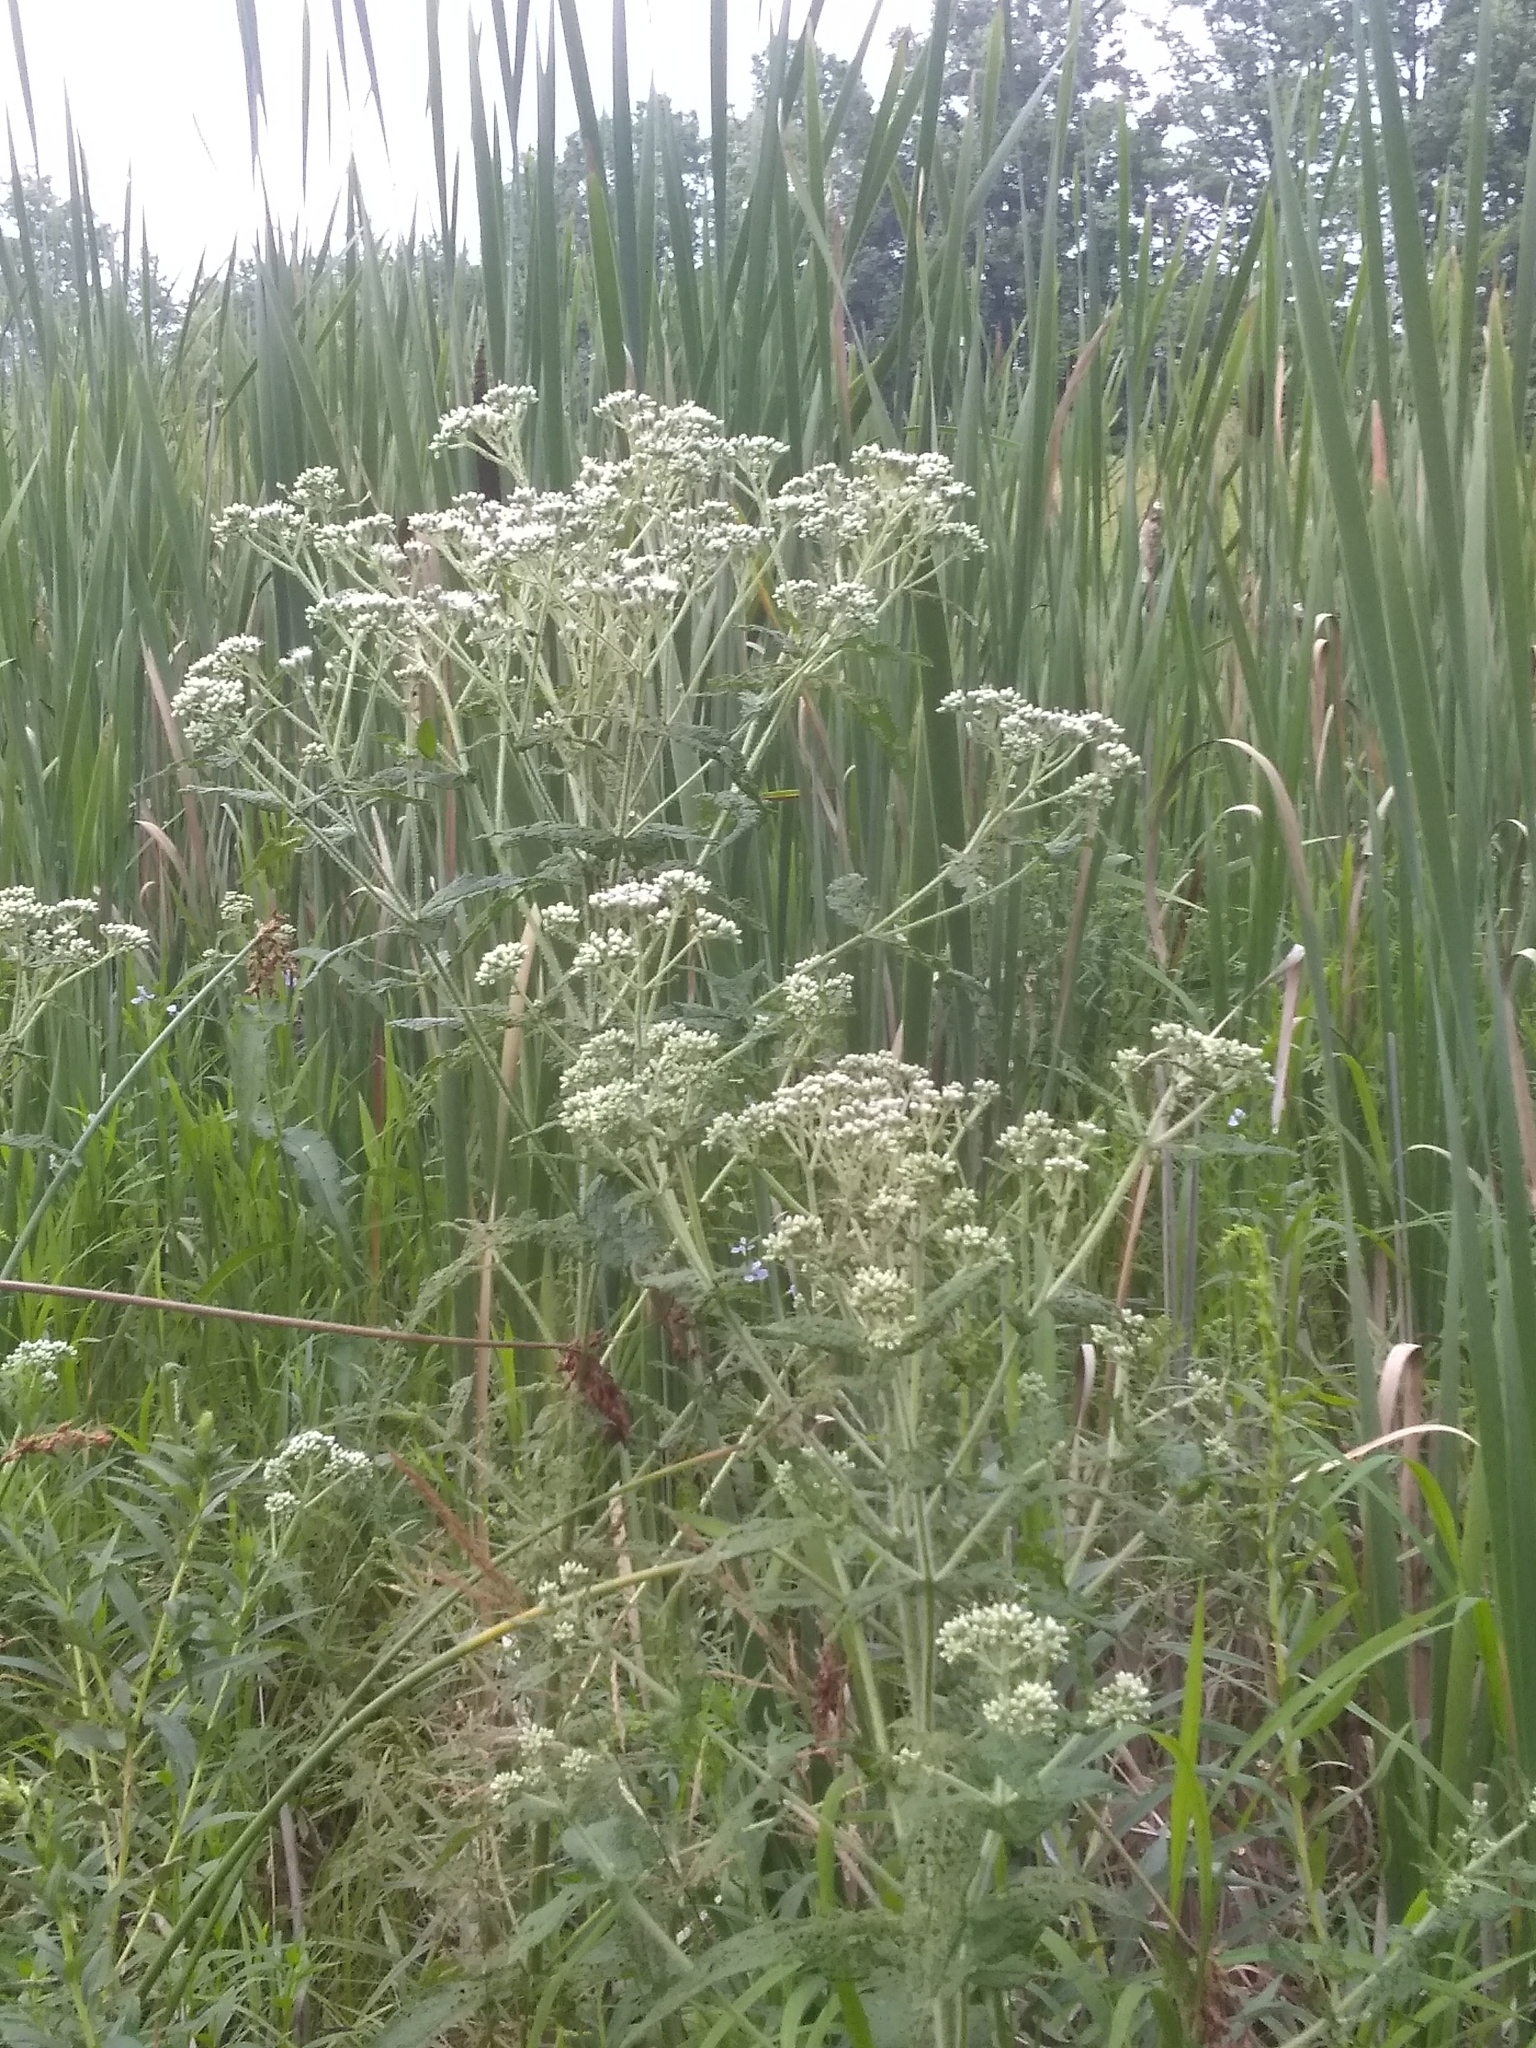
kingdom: Plantae
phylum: Tracheophyta
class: Magnoliopsida
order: Asterales
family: Asteraceae
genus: Eupatorium
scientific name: Eupatorium perfoliatum
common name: Boneset
